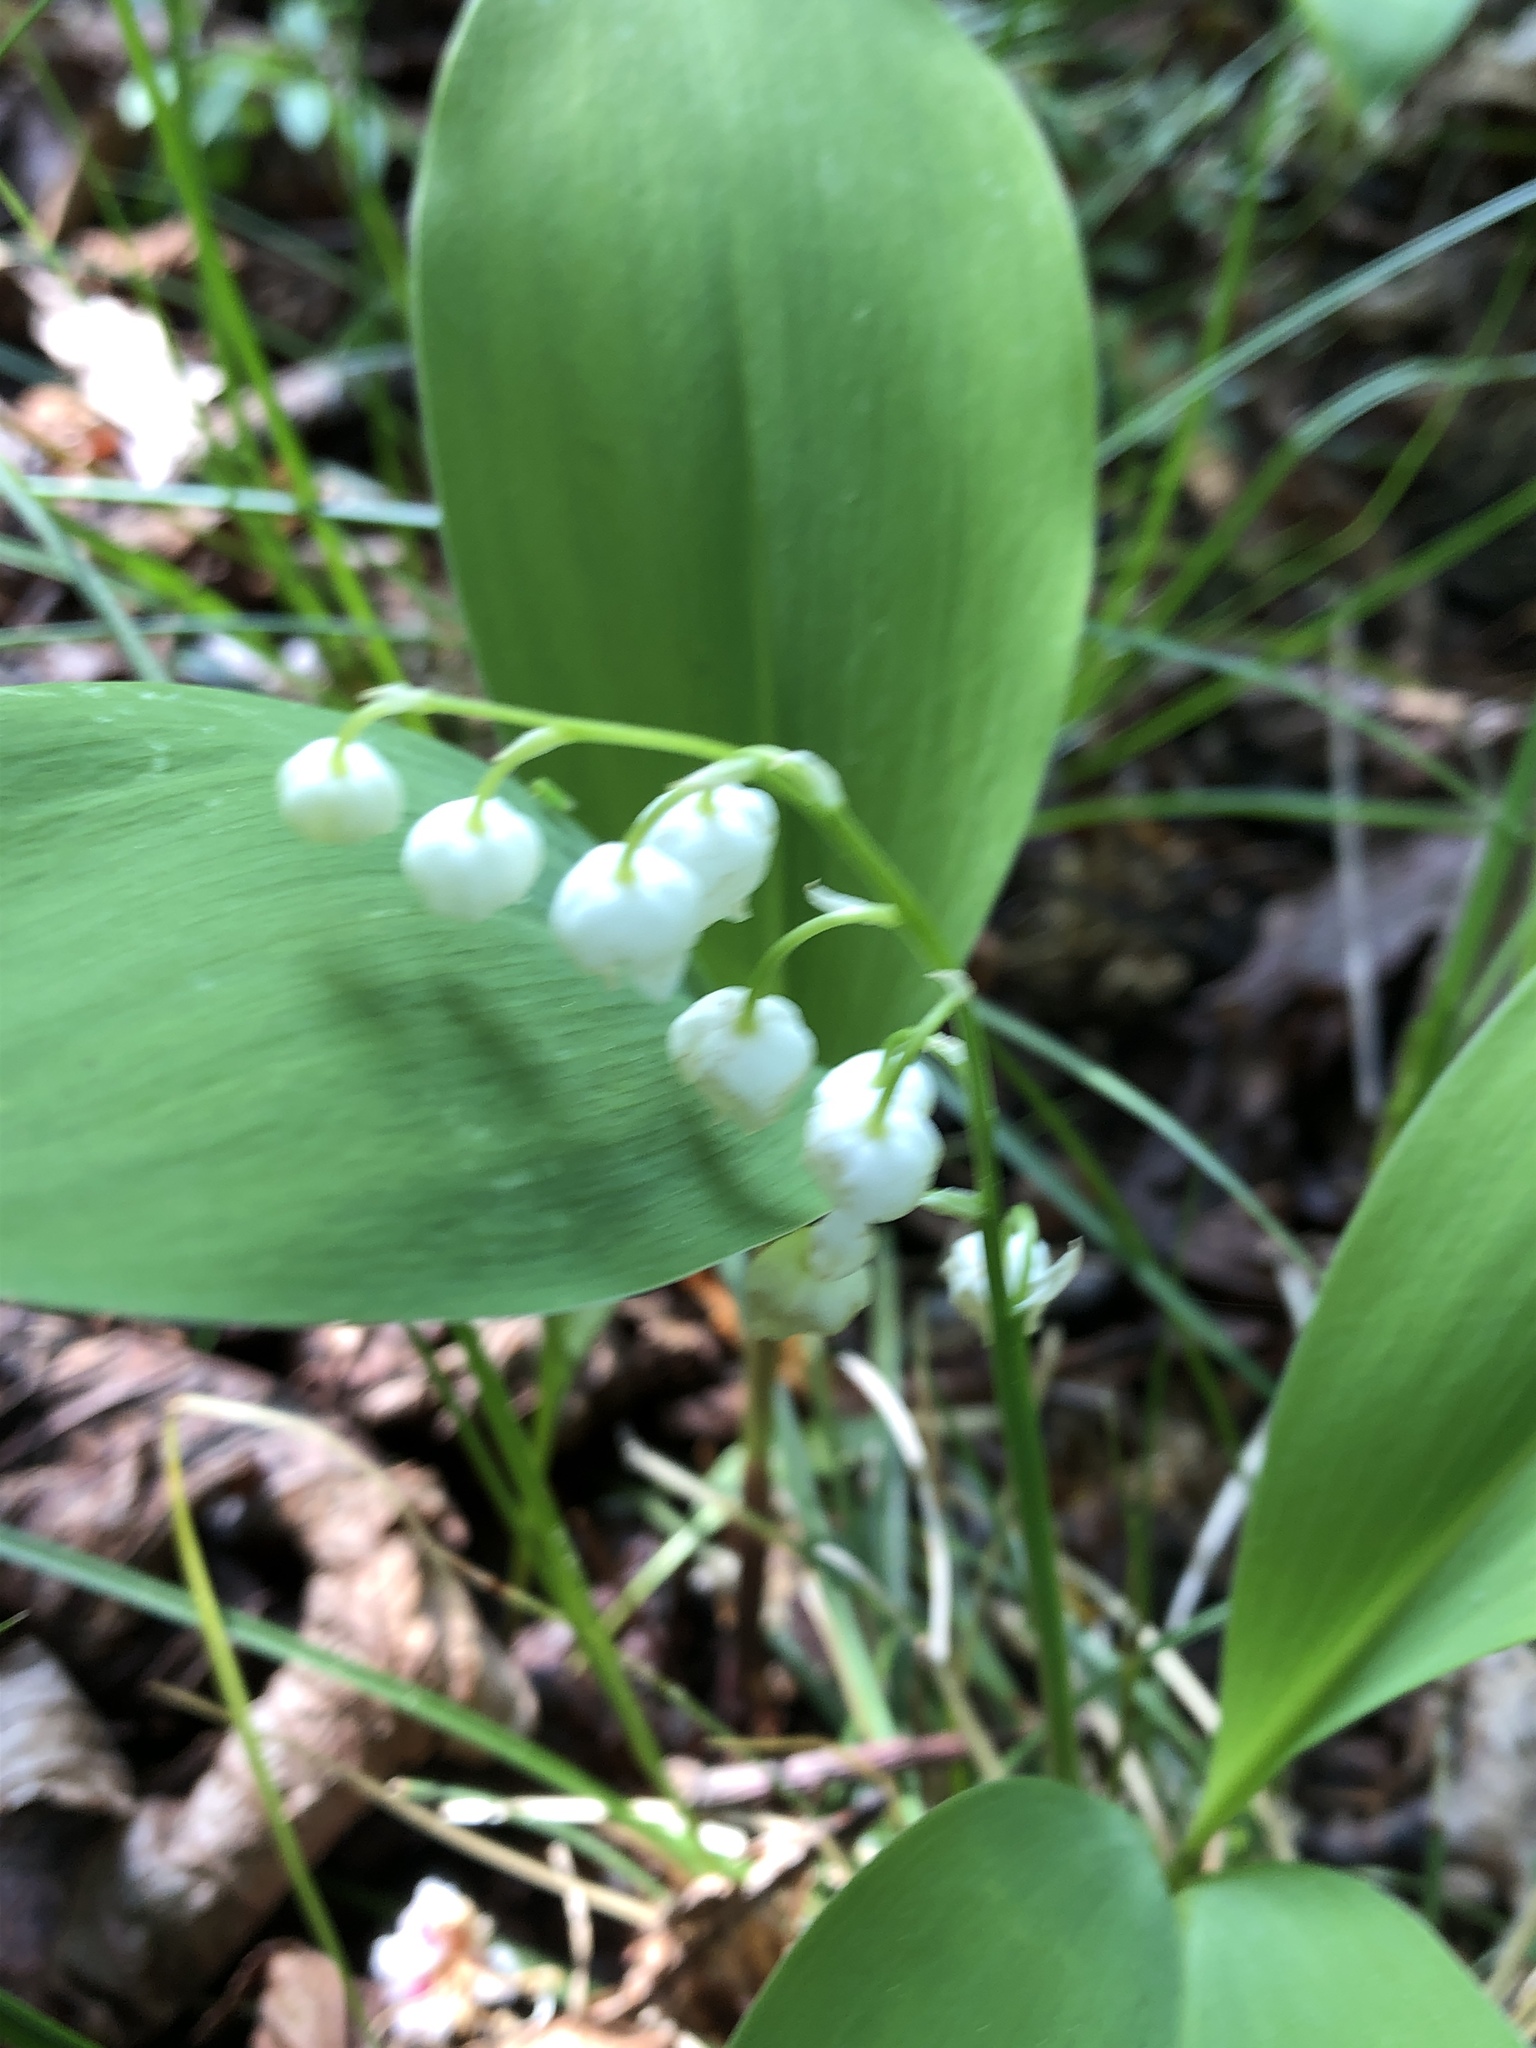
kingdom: Plantae
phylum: Tracheophyta
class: Liliopsida
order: Asparagales
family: Asparagaceae
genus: Convallaria
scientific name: Convallaria majalis
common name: Lily-of-the-valley
